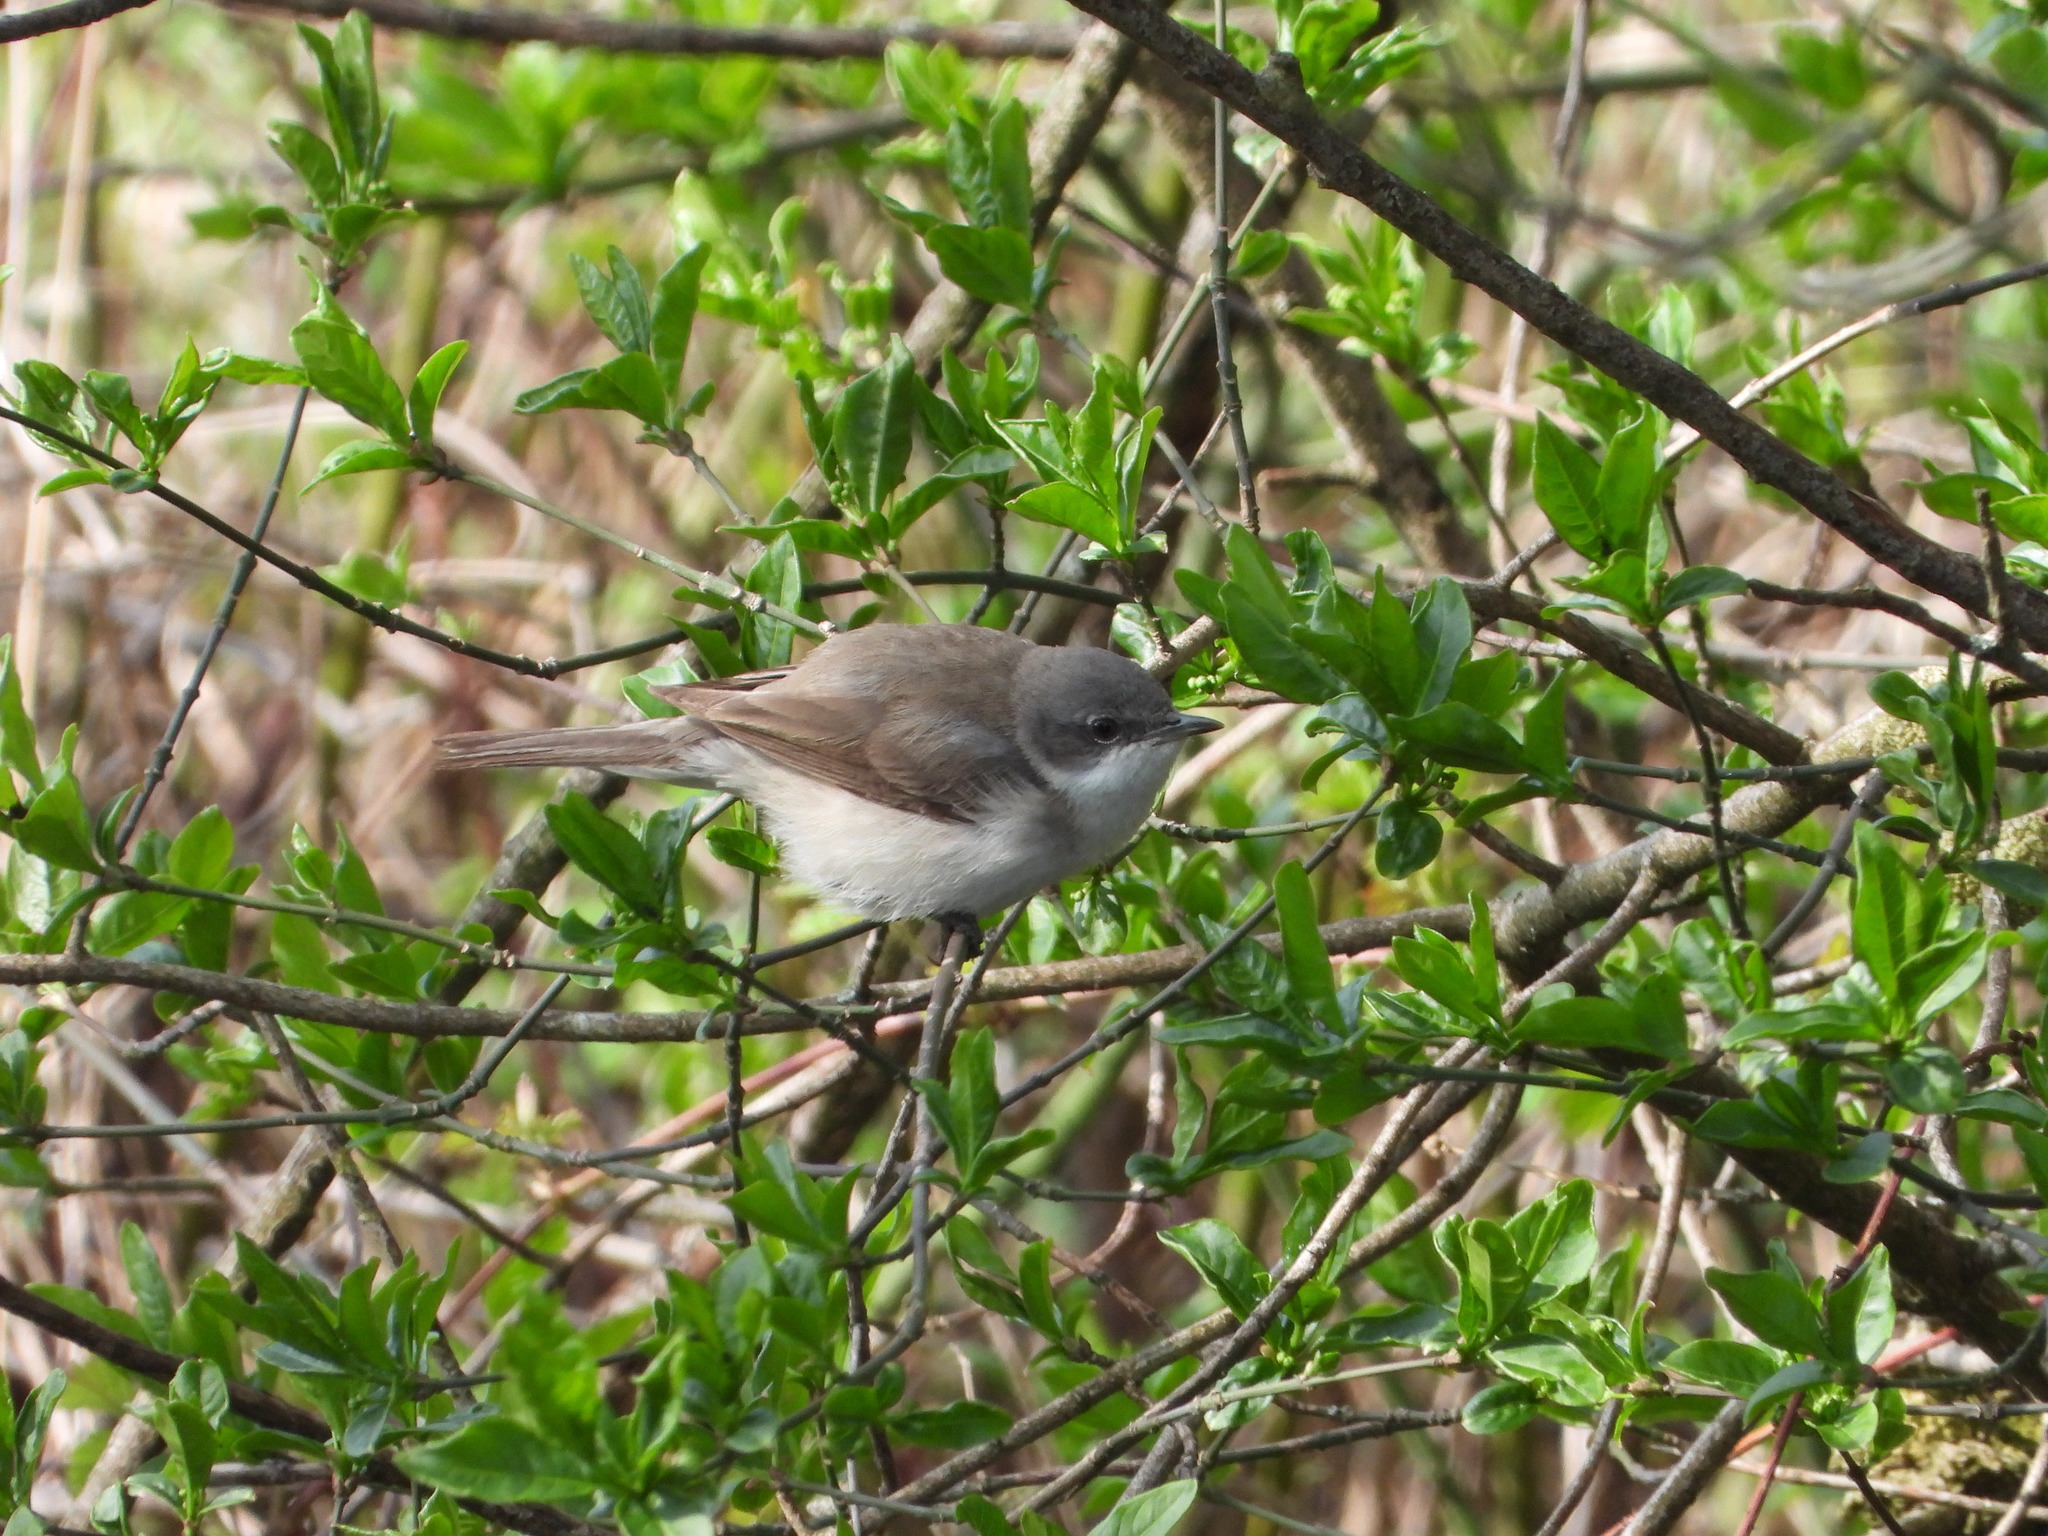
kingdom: Animalia
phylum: Chordata
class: Aves
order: Passeriformes
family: Sylviidae
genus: Sylvia
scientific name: Sylvia curruca
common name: Lesser whitethroat
